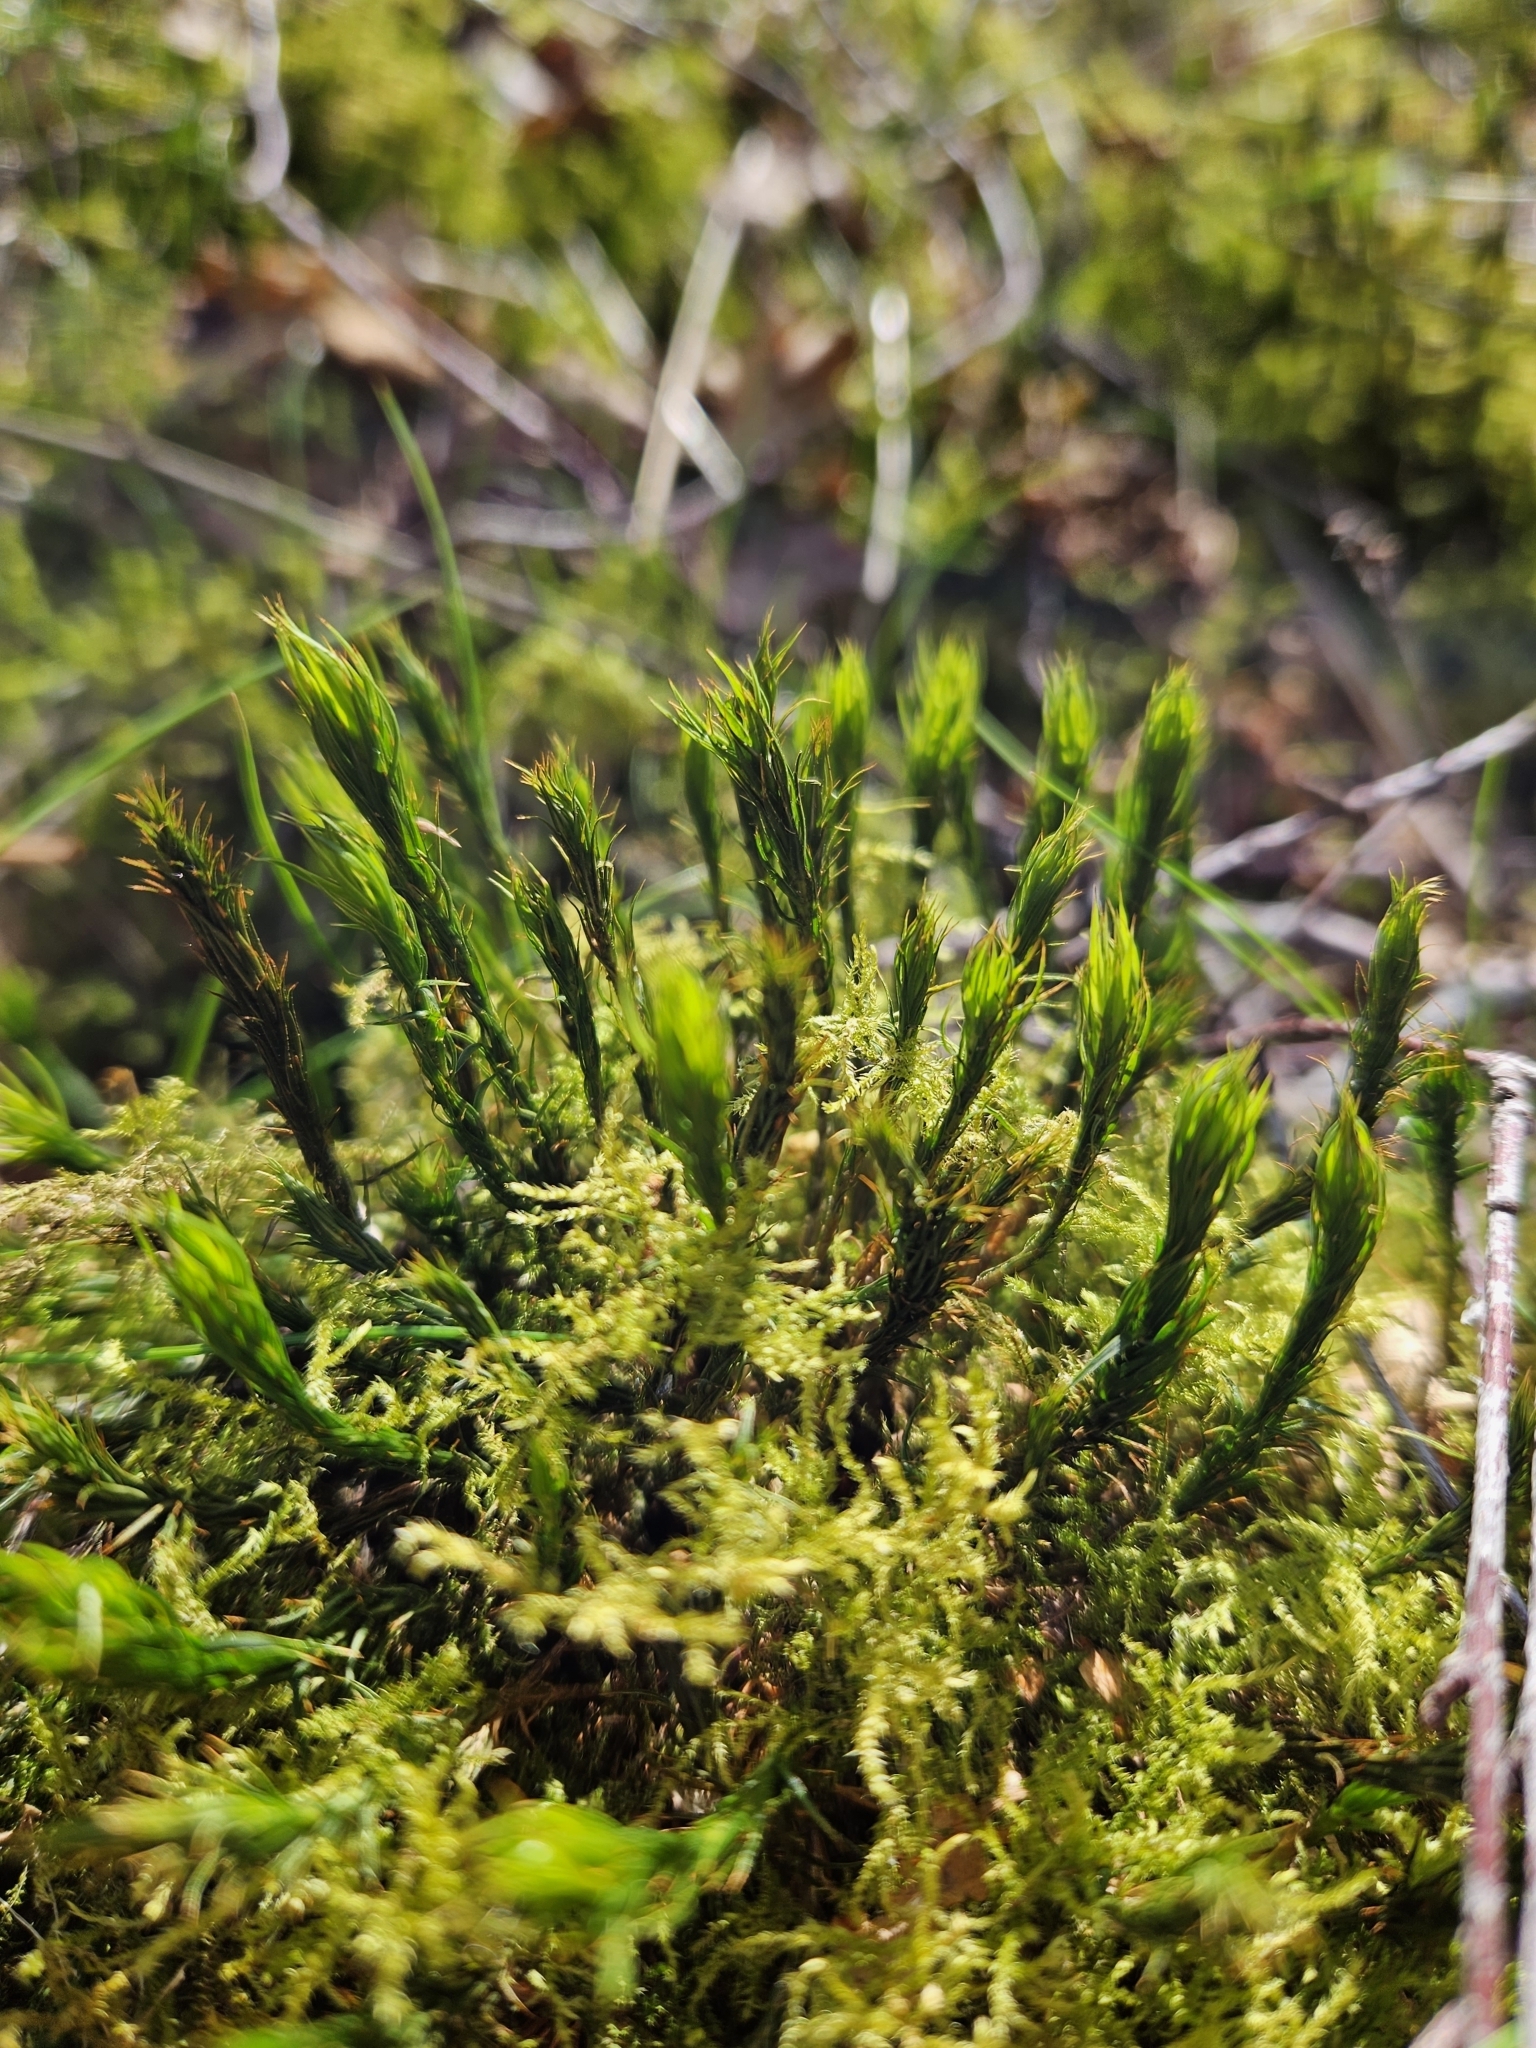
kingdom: Plantae
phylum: Bryophyta
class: Polytrichopsida
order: Polytrichales
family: Polytrichaceae
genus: Polytrichum
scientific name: Polytrichum formosum
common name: Bank haircap moss
